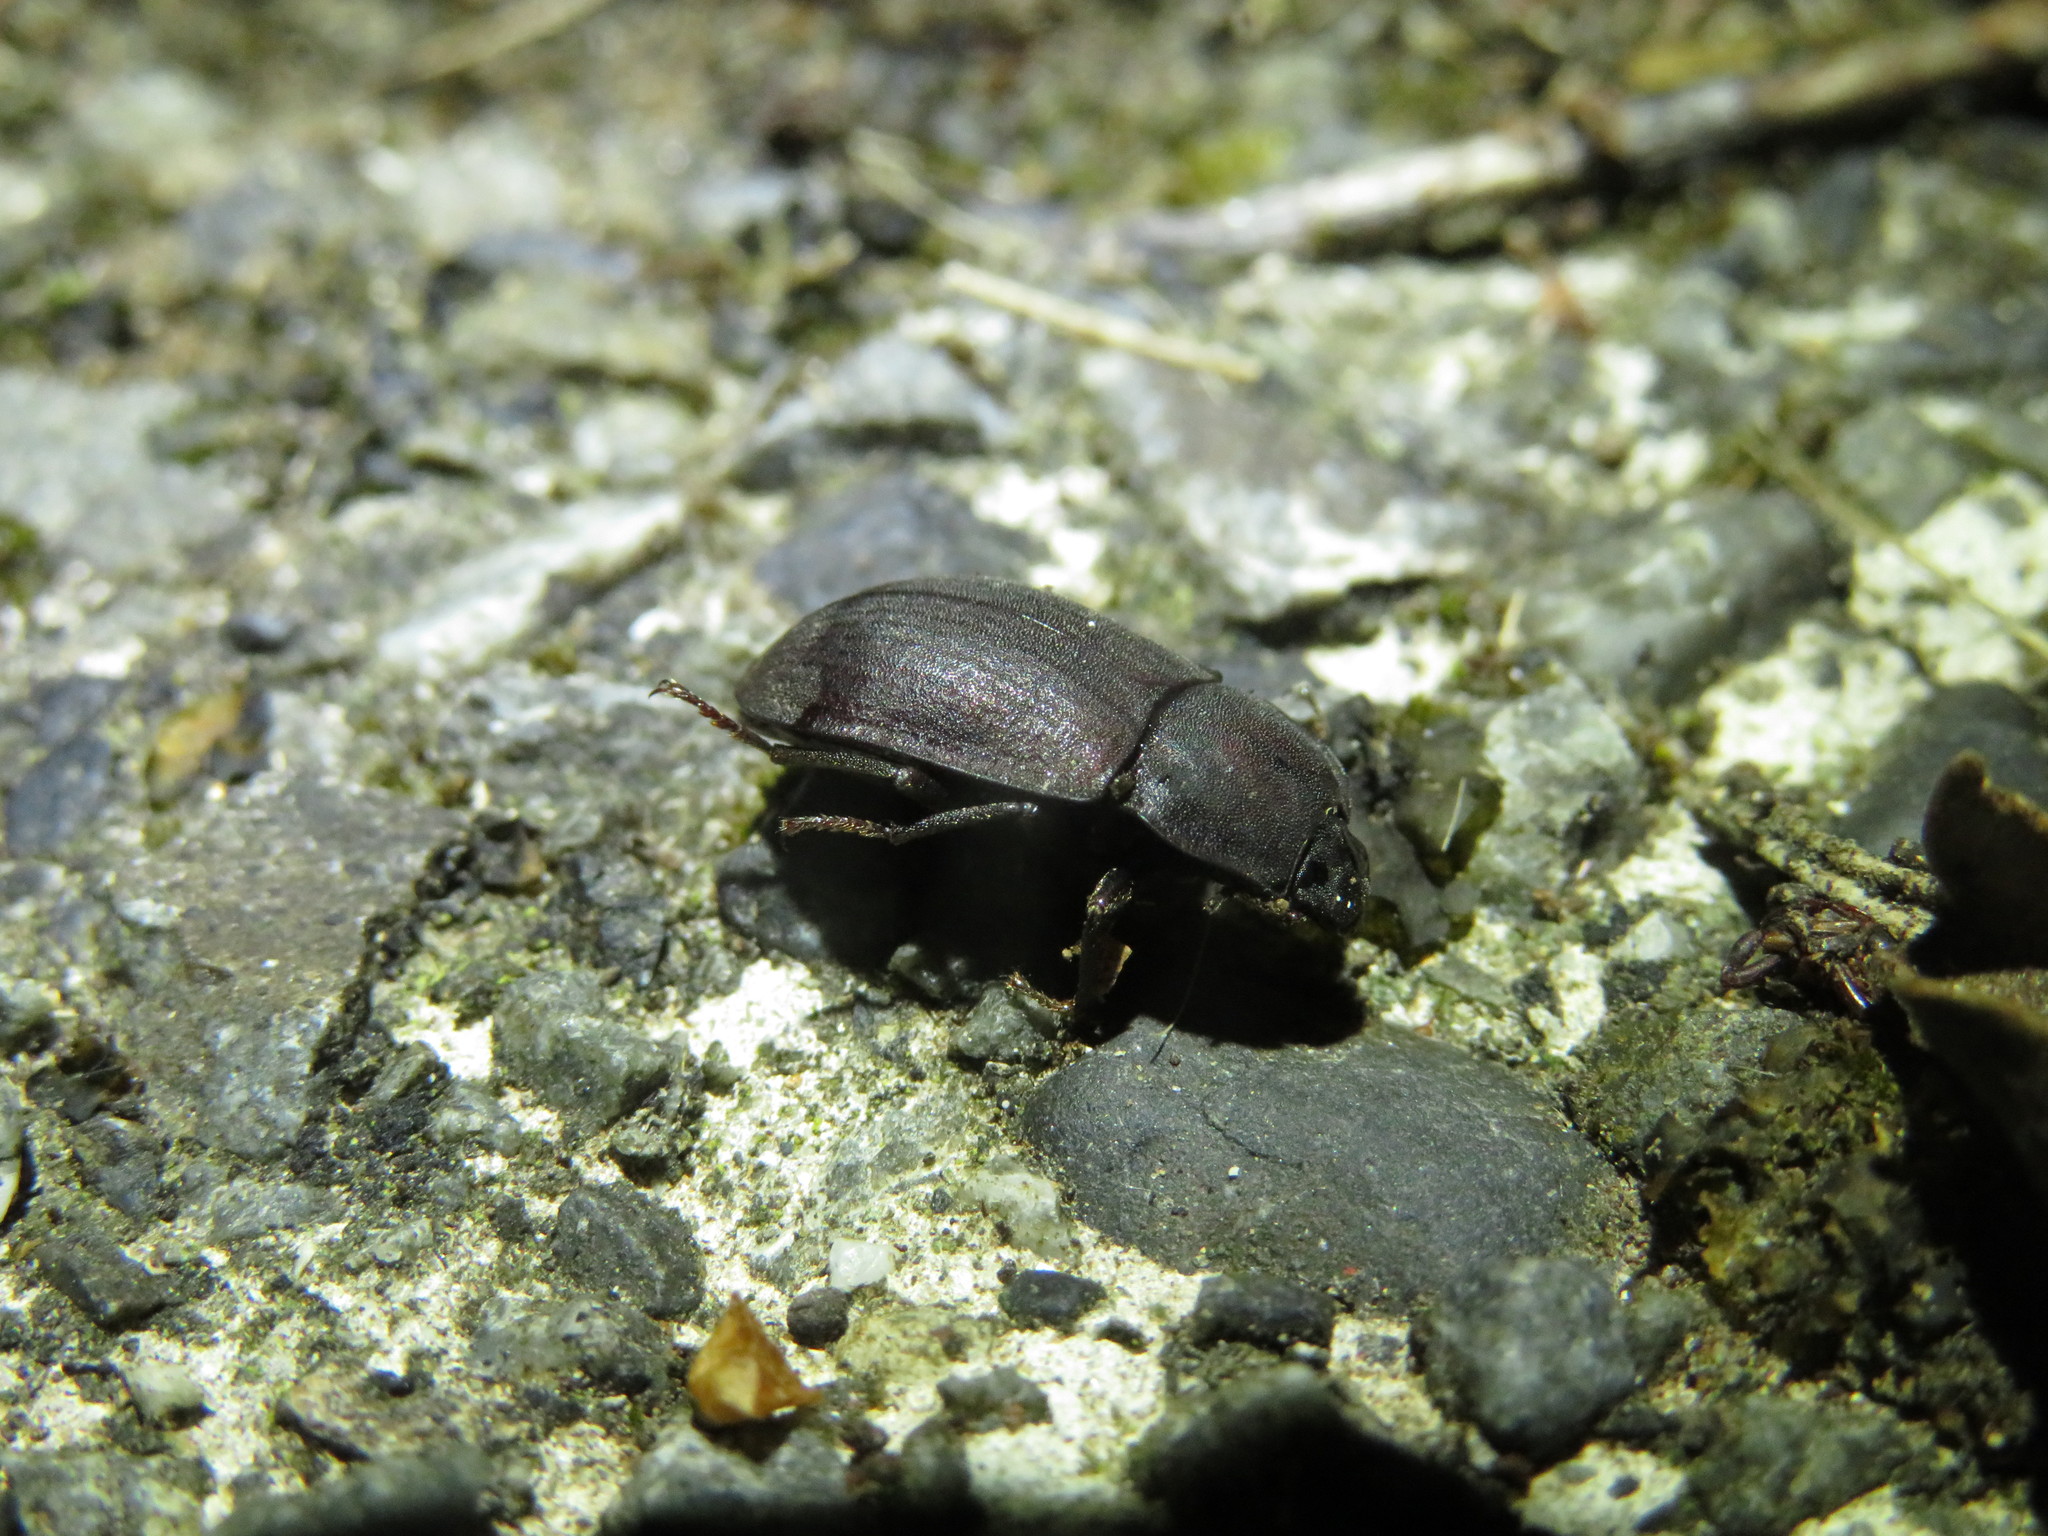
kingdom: Animalia
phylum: Arthropoda
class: Insecta
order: Coleoptera
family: Tenebrionidae
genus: Mimopeus
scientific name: Mimopeus
